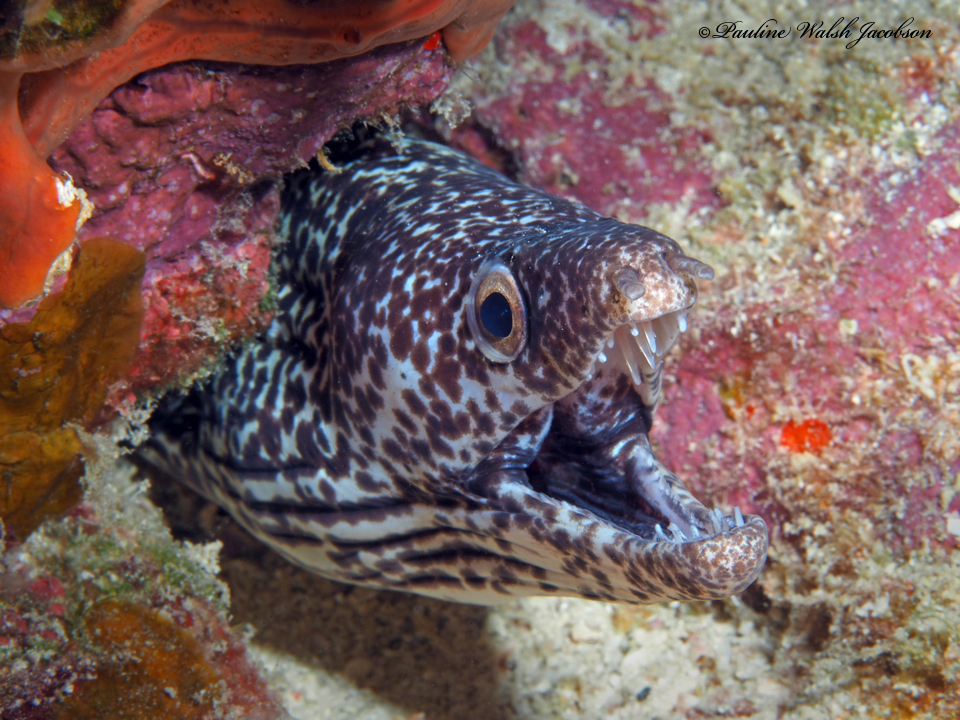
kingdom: Animalia
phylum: Chordata
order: Anguilliformes
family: Muraenidae
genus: Gymnothorax
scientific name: Gymnothorax moringa
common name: Spotted moray
